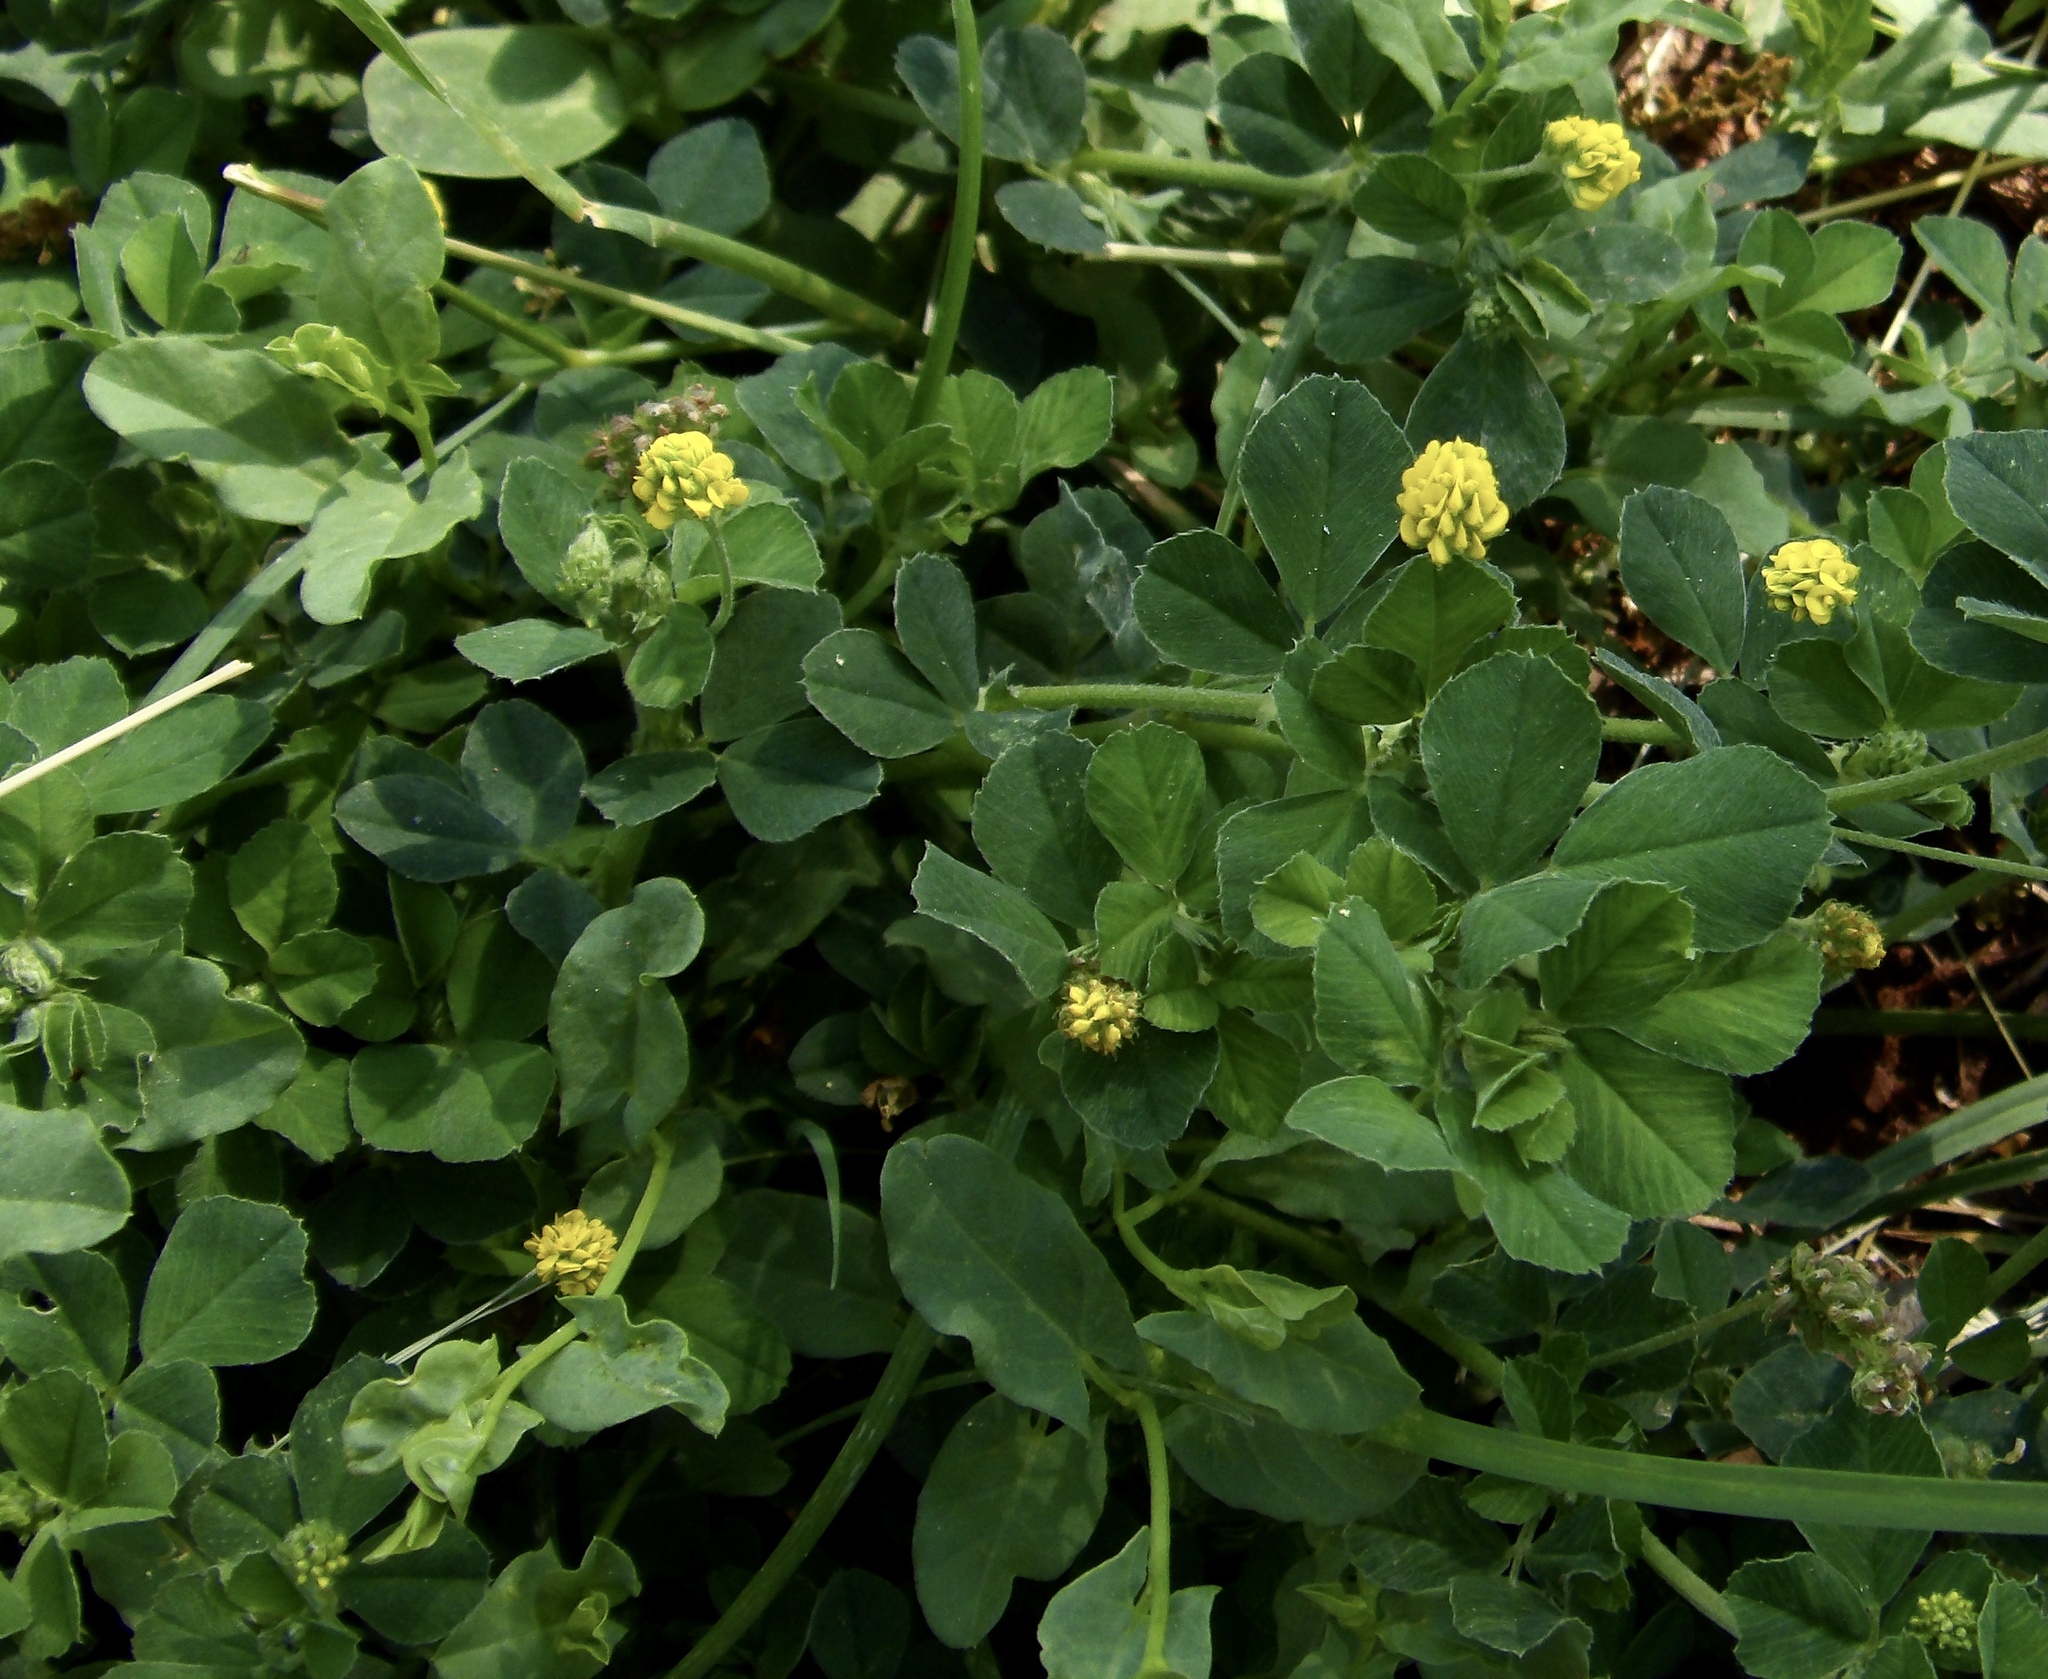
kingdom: Plantae
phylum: Tracheophyta
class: Magnoliopsida
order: Fabales
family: Fabaceae
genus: Medicago
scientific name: Medicago lupulina
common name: Black medick
